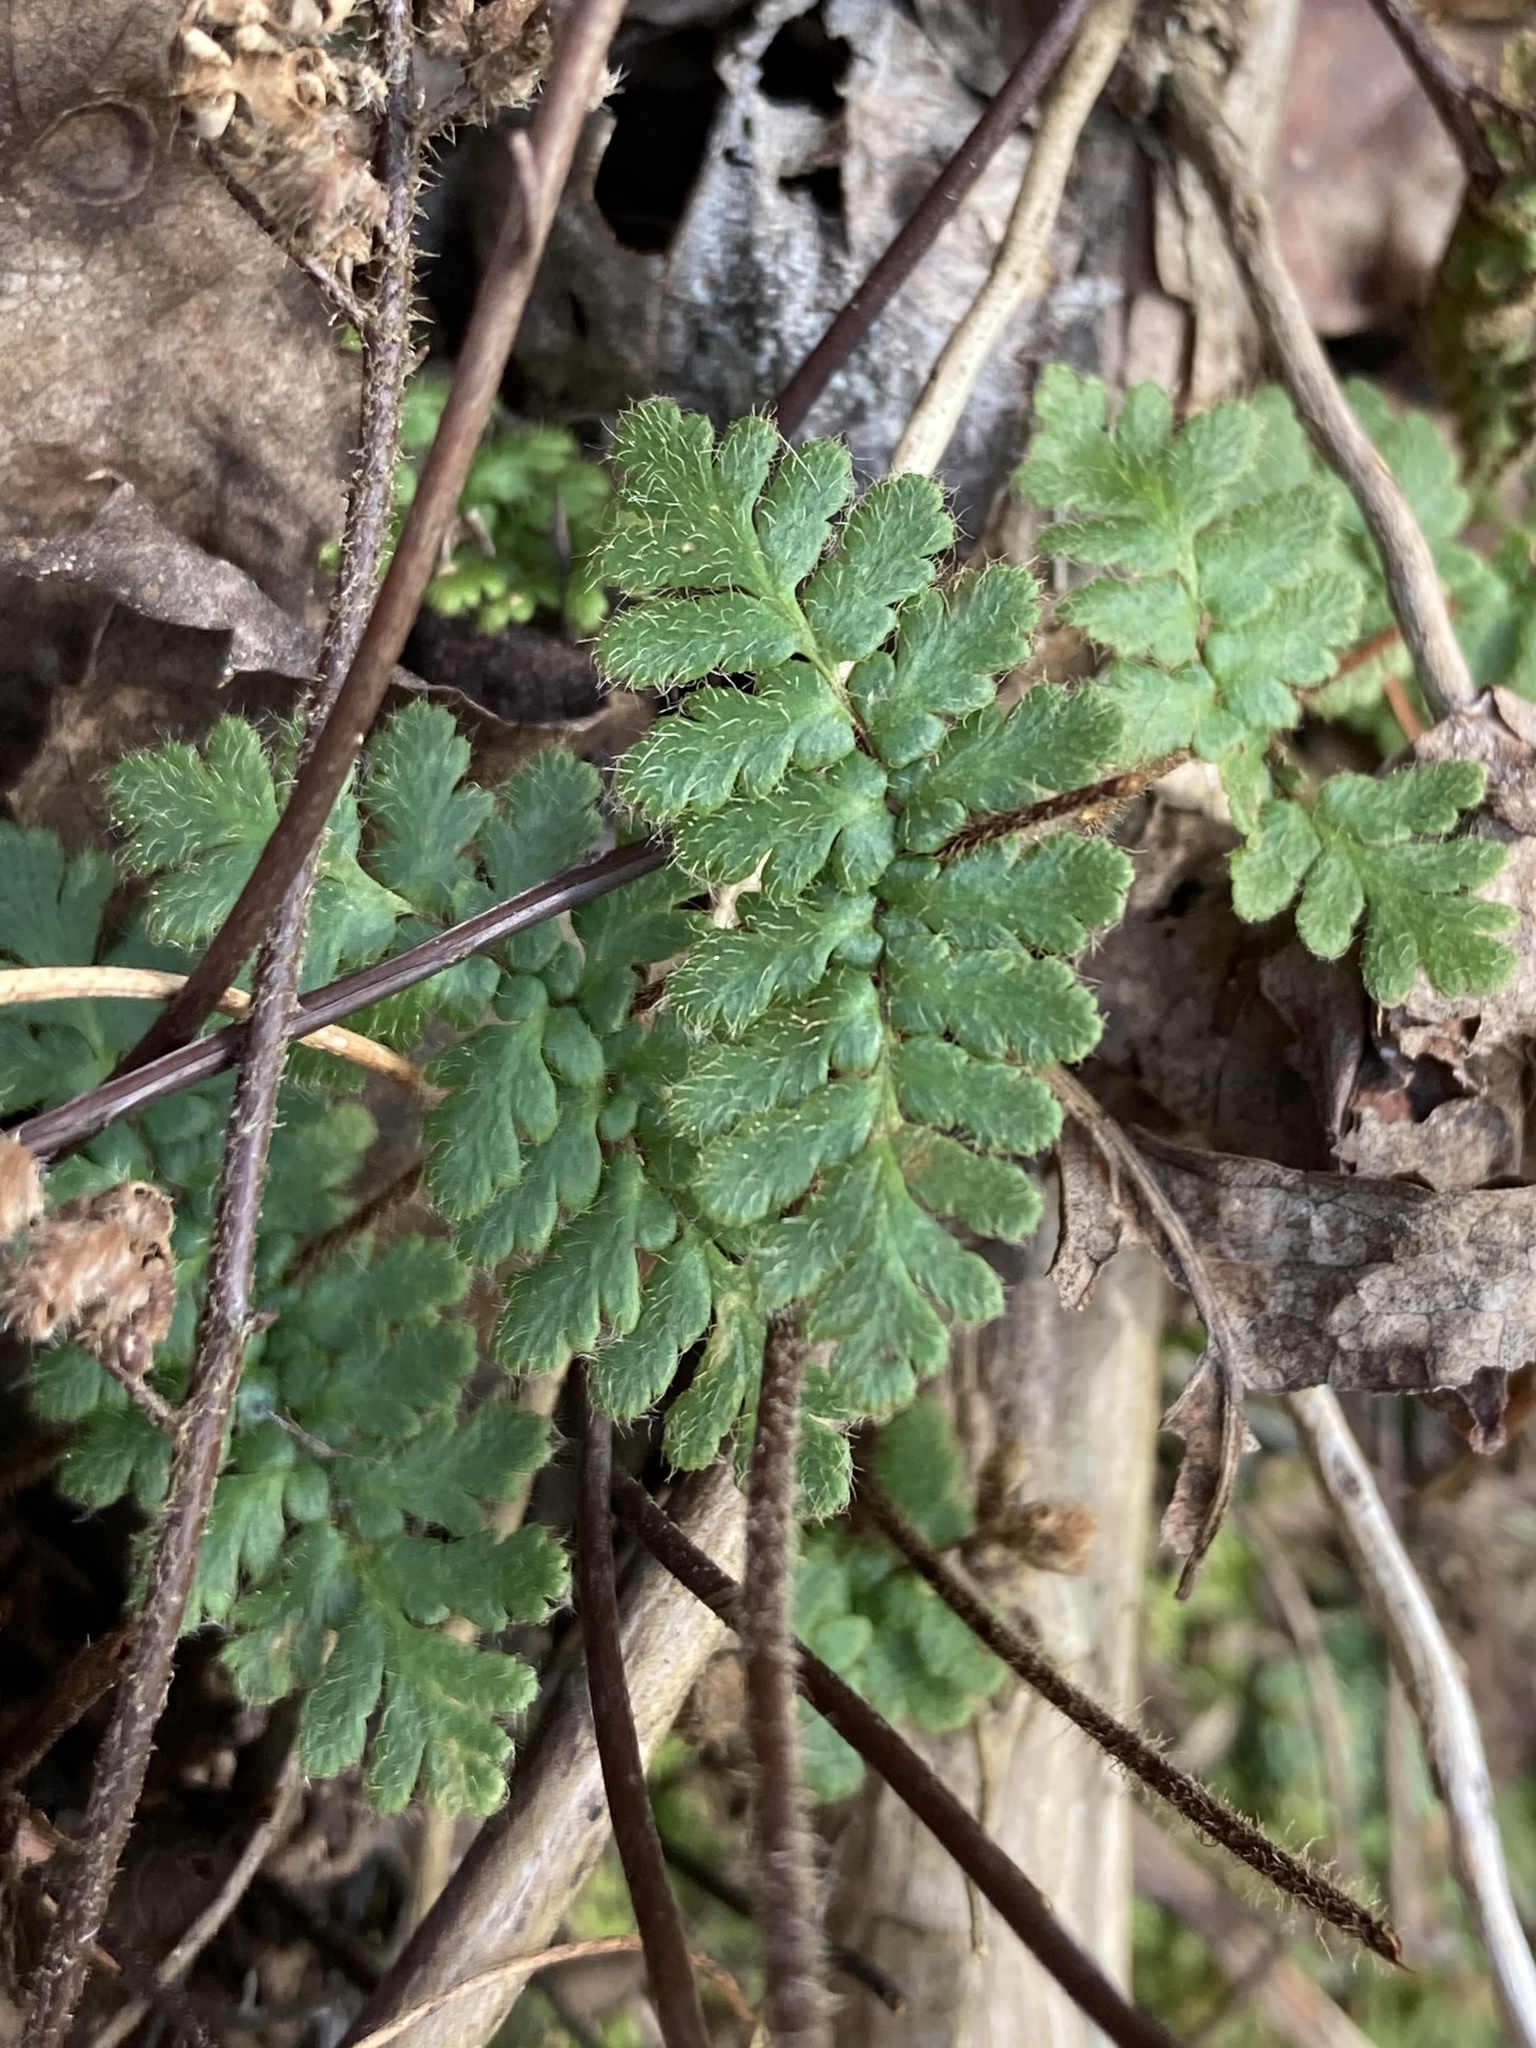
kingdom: Plantae
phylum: Tracheophyta
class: Polypodiopsida
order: Polypodiales
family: Pteridaceae
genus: Myriopteris
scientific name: Myriopteris lanosa
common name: Hairy lip fern
